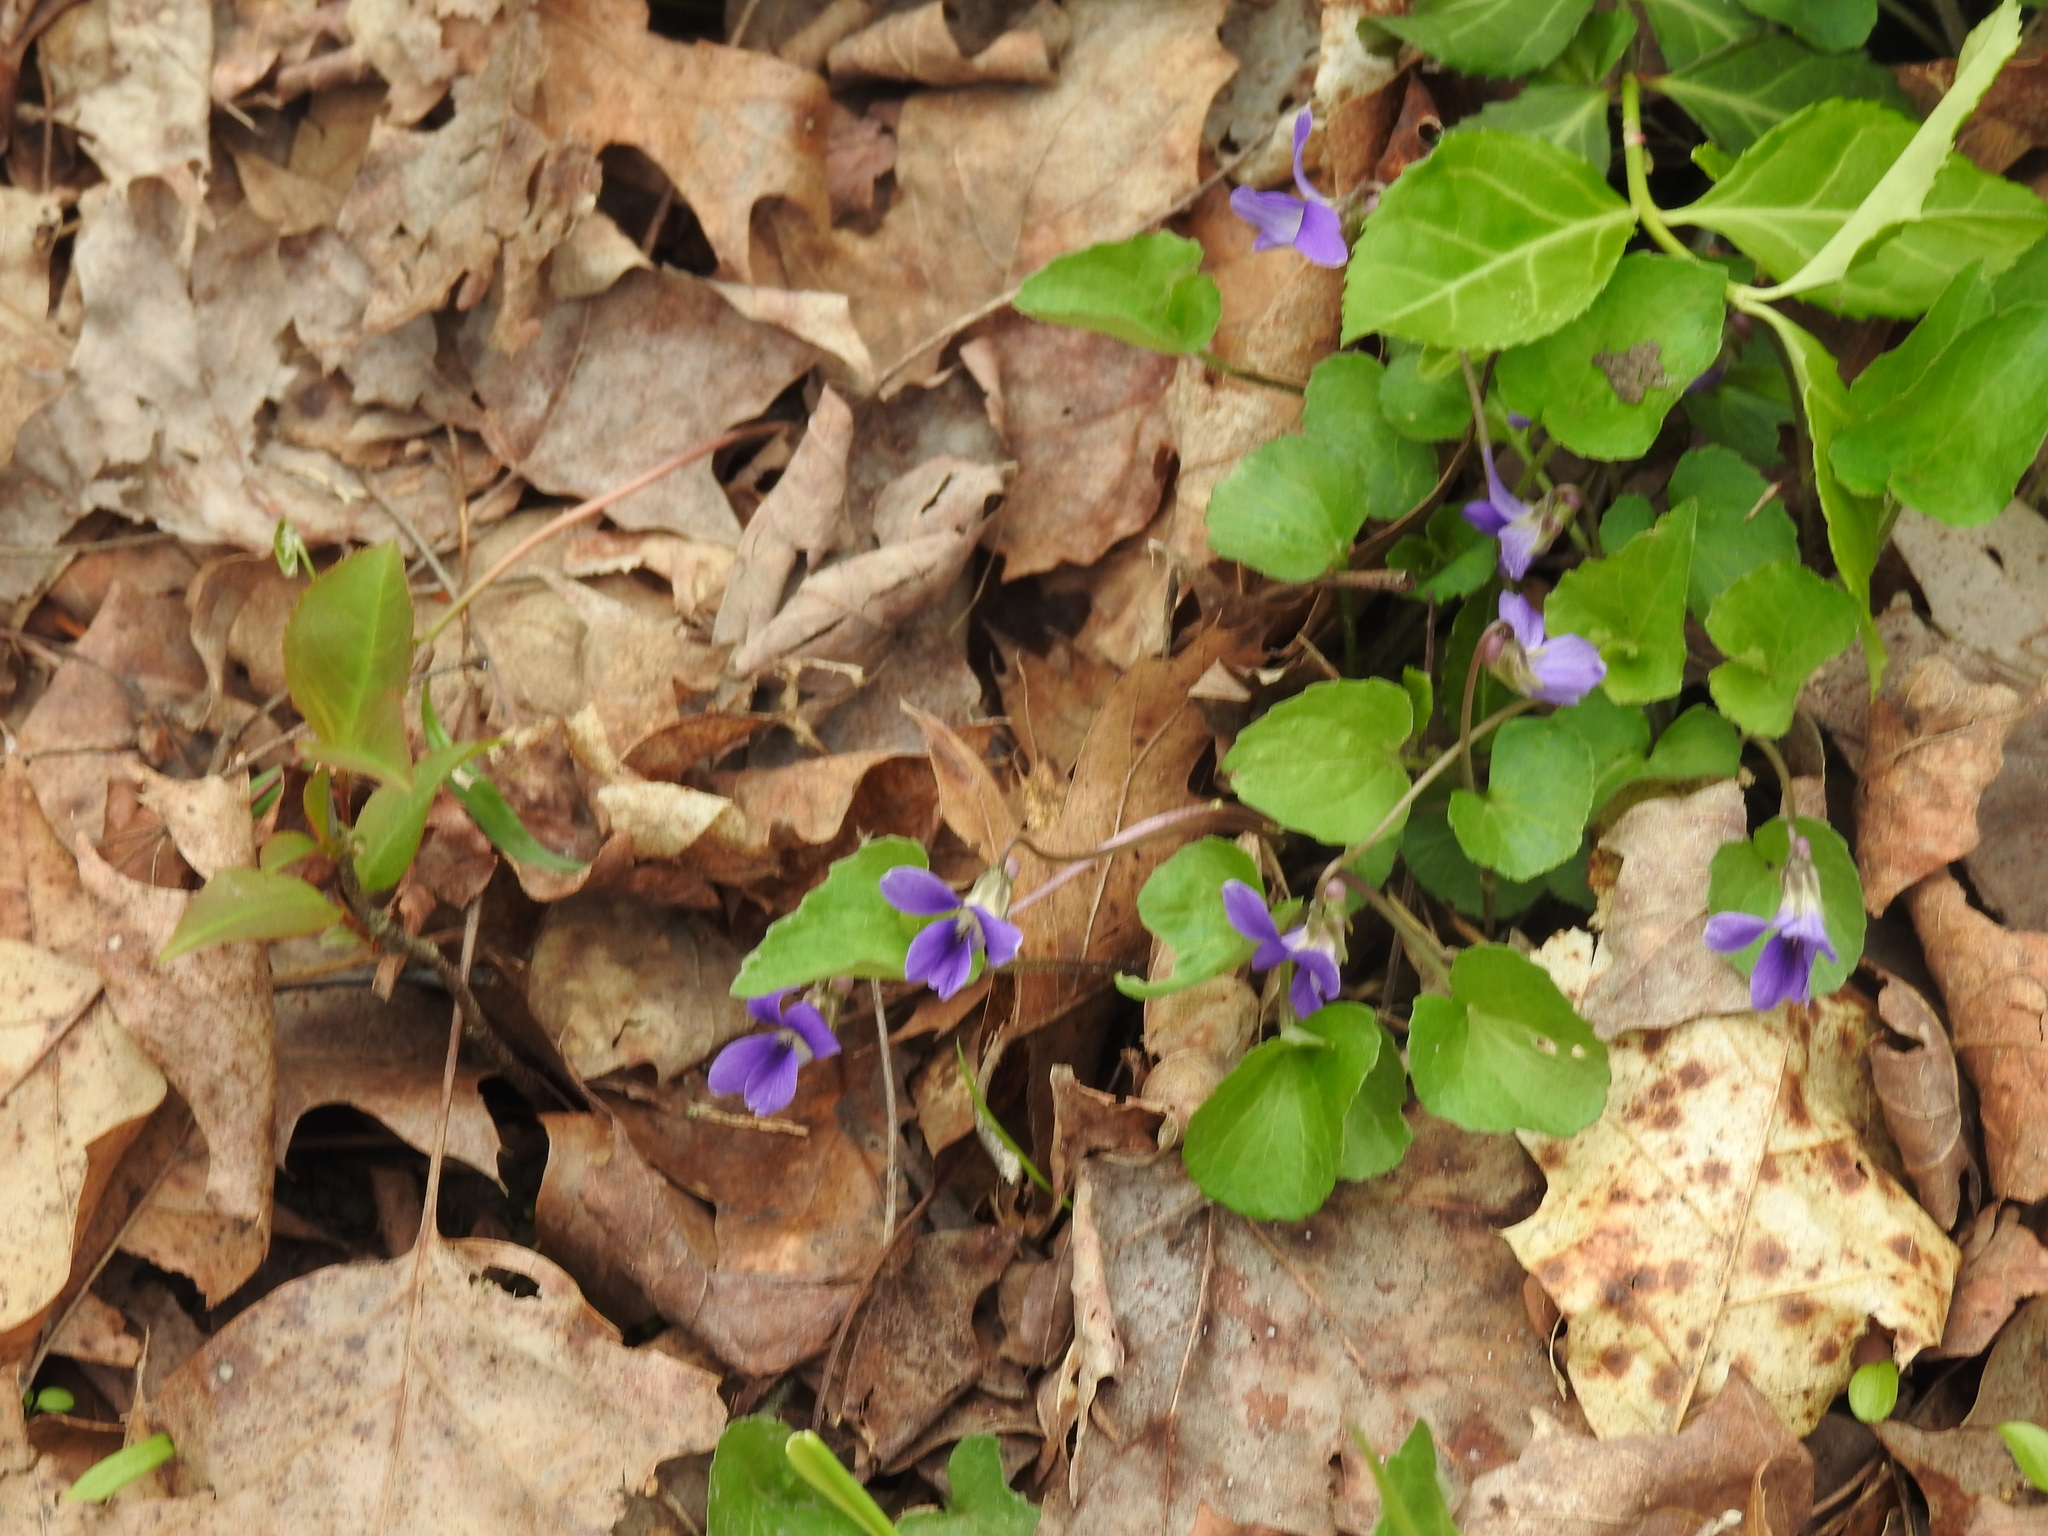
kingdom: Plantae
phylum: Tracheophyta
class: Magnoliopsida
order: Malpighiales
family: Violaceae
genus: Viola
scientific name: Viola sororia
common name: Dooryard violet
